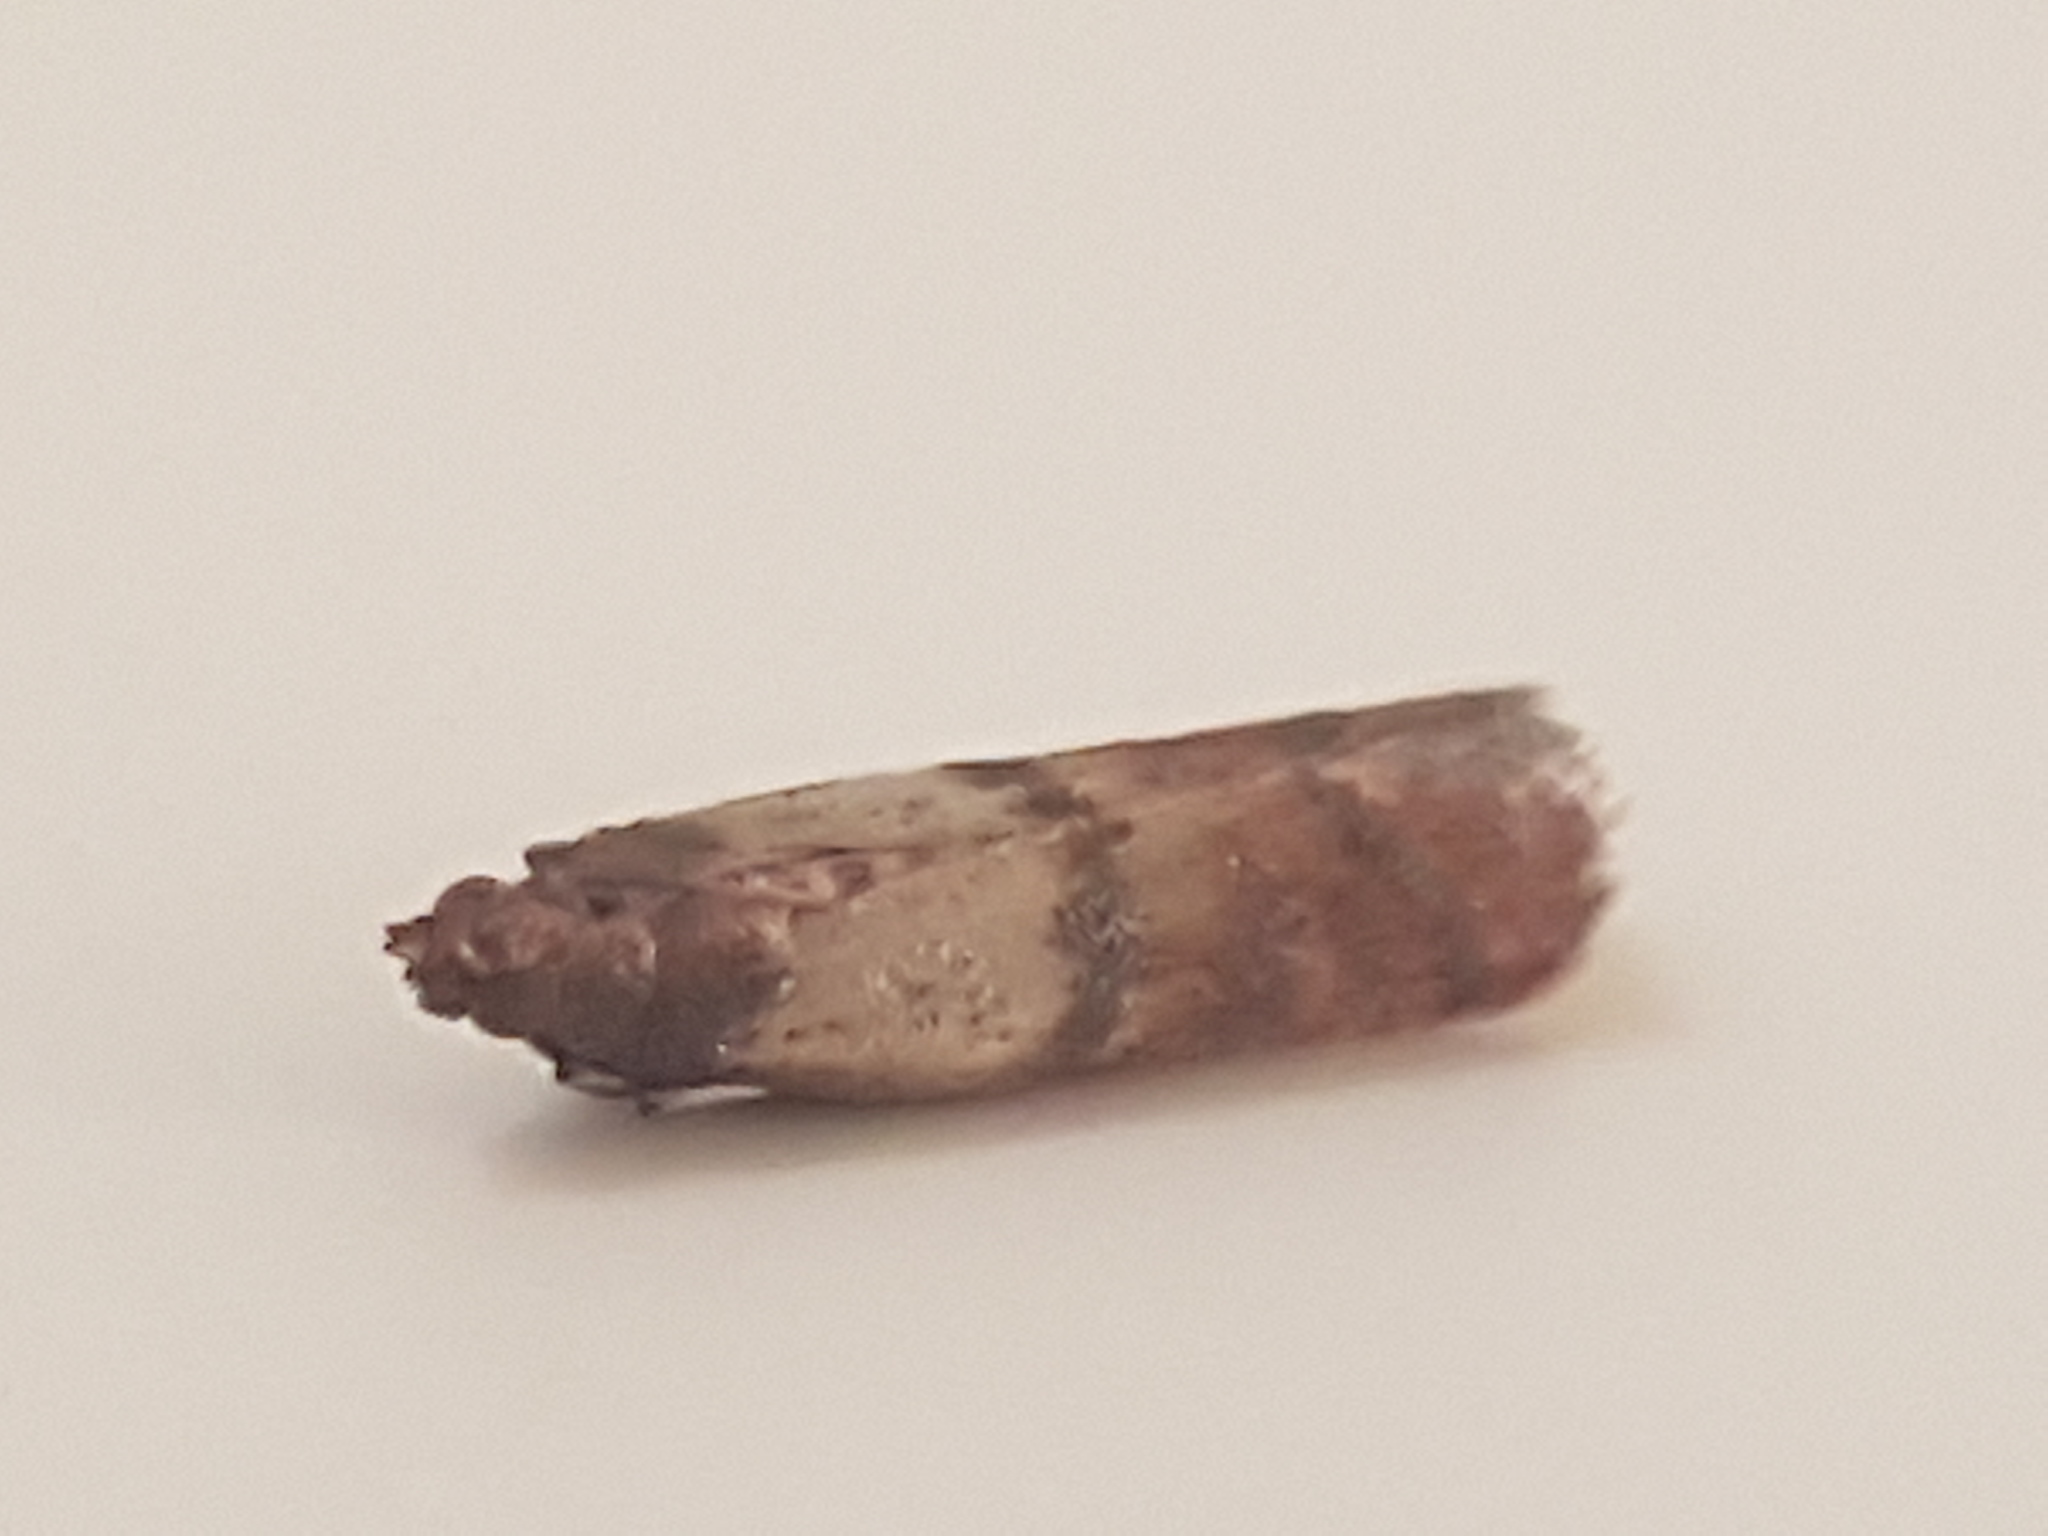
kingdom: Animalia
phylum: Arthropoda
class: Insecta
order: Lepidoptera
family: Pyralidae
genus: Plodia
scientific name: Plodia interpunctella
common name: Indian meal moth
